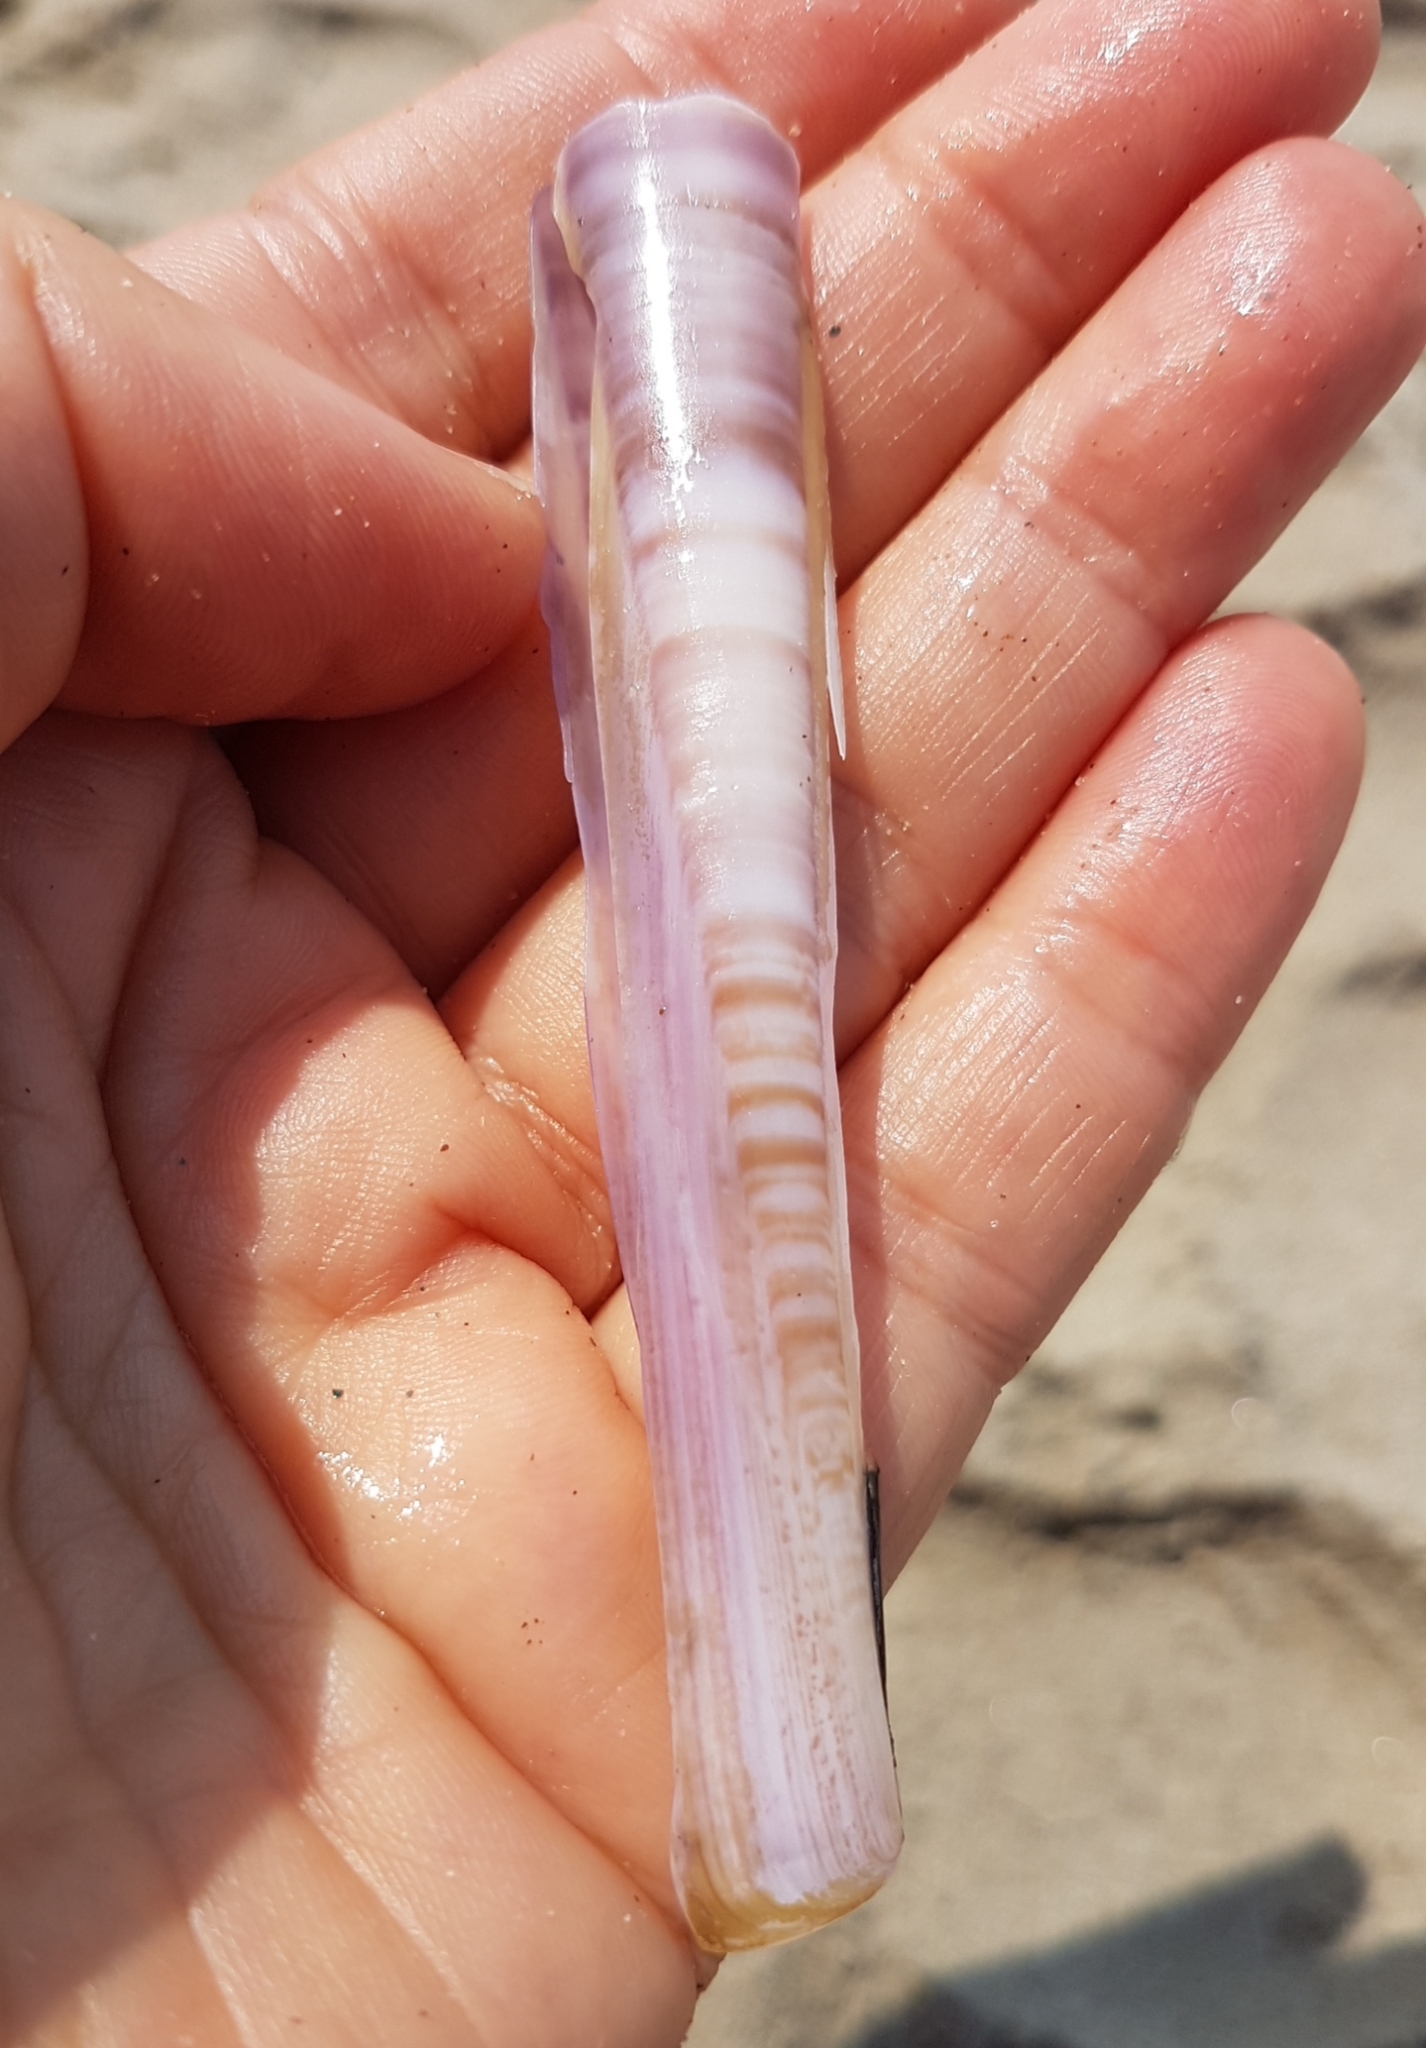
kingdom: Animalia
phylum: Mollusca
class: Bivalvia
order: Adapedonta
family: Pharidae
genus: Ensis
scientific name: Ensis minor
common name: Minor jackknife clam
